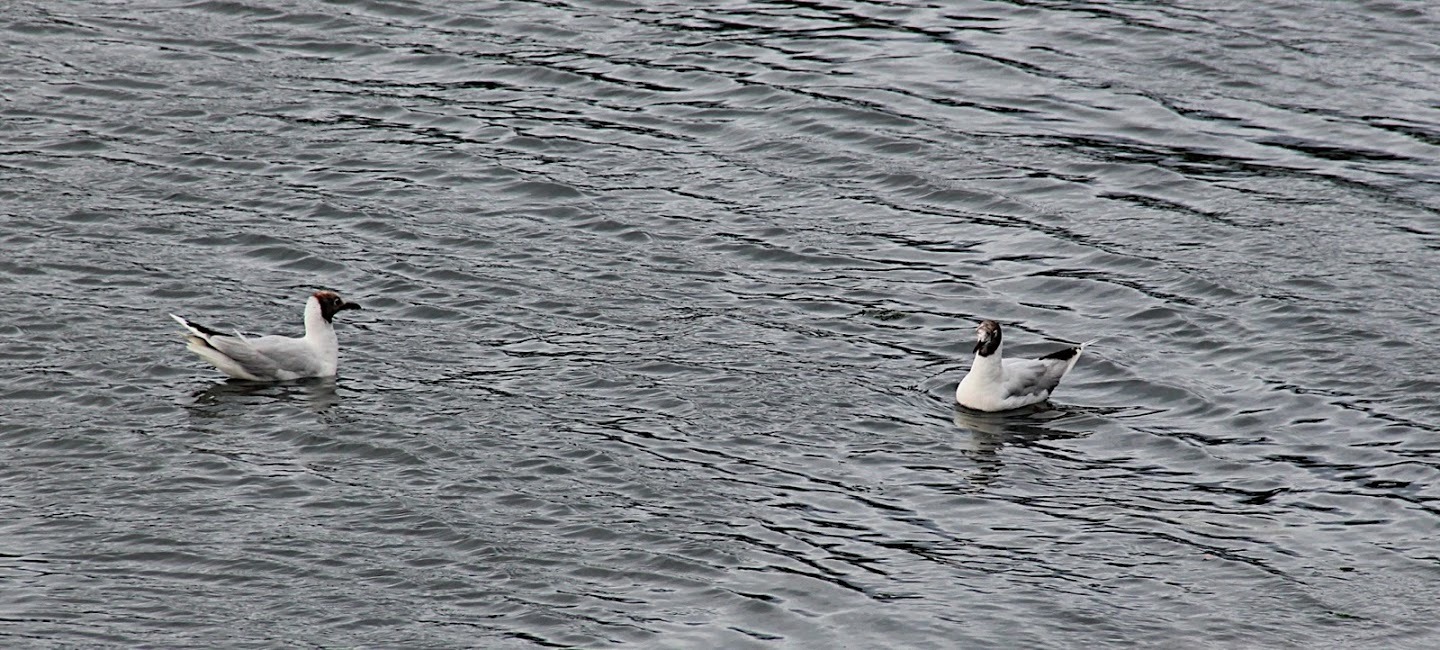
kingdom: Animalia
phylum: Chordata
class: Aves
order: Charadriiformes
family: Laridae
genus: Chroicocephalus
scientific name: Chroicocephalus maculipennis
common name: Brown-hooded gull
